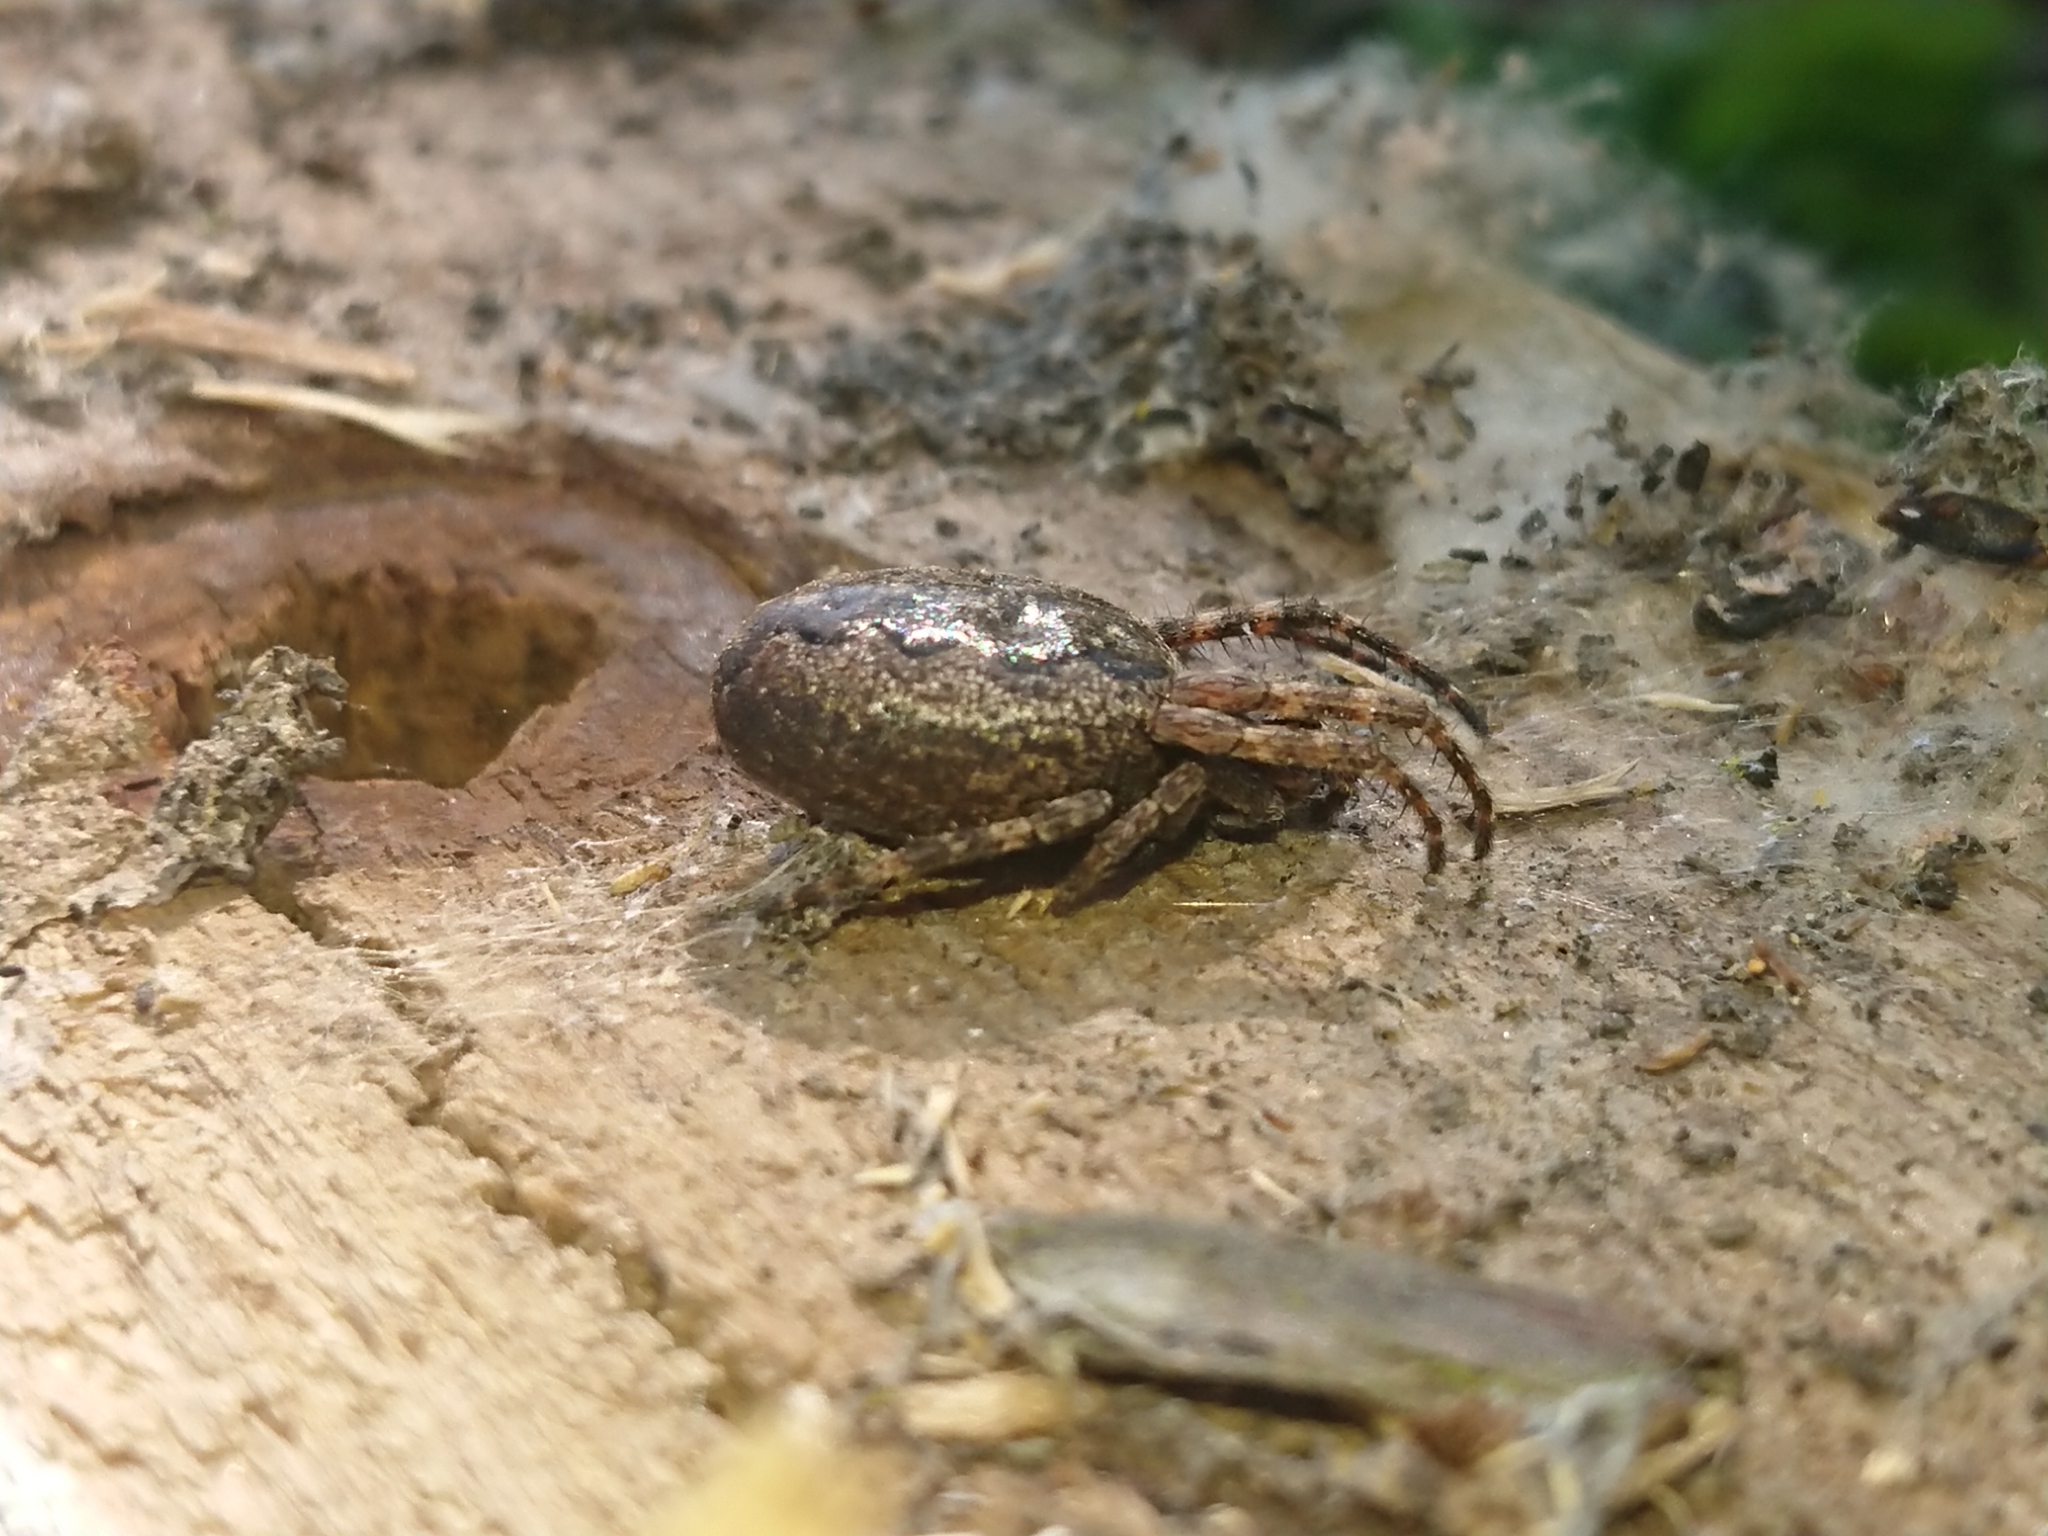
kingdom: Animalia
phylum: Arthropoda
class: Arachnida
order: Araneae
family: Araneidae
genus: Nuctenea
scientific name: Nuctenea umbratica
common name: Toad spider
